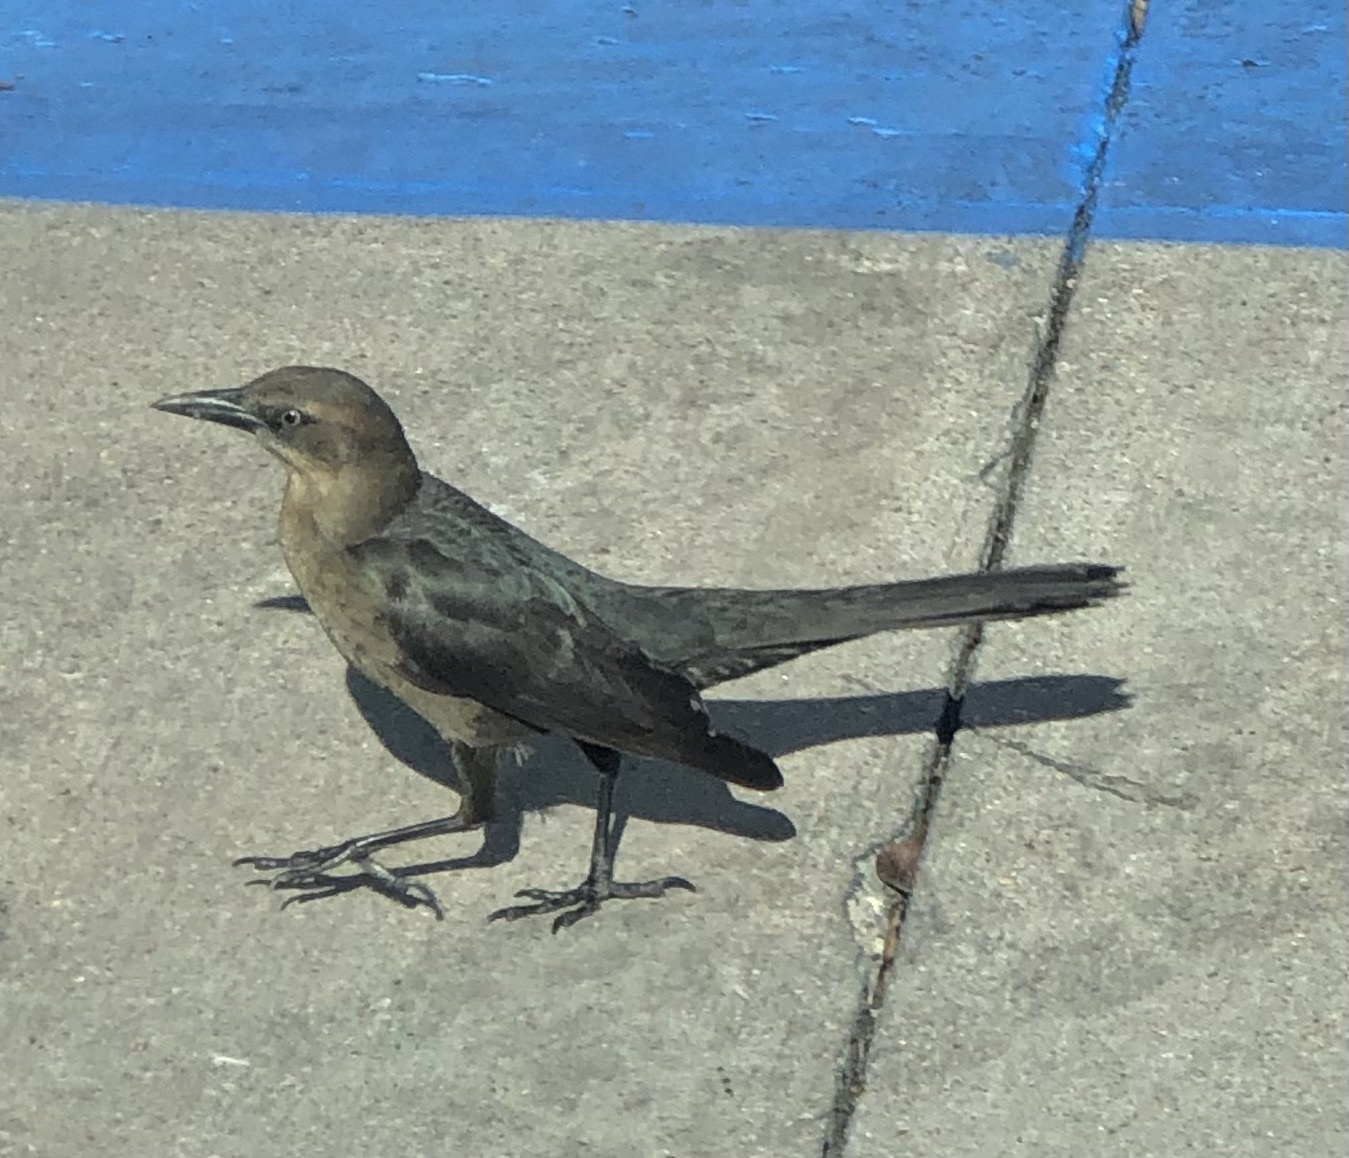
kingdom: Animalia
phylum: Chordata
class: Aves
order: Passeriformes
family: Icteridae
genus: Quiscalus
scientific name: Quiscalus mexicanus
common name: Great-tailed grackle
